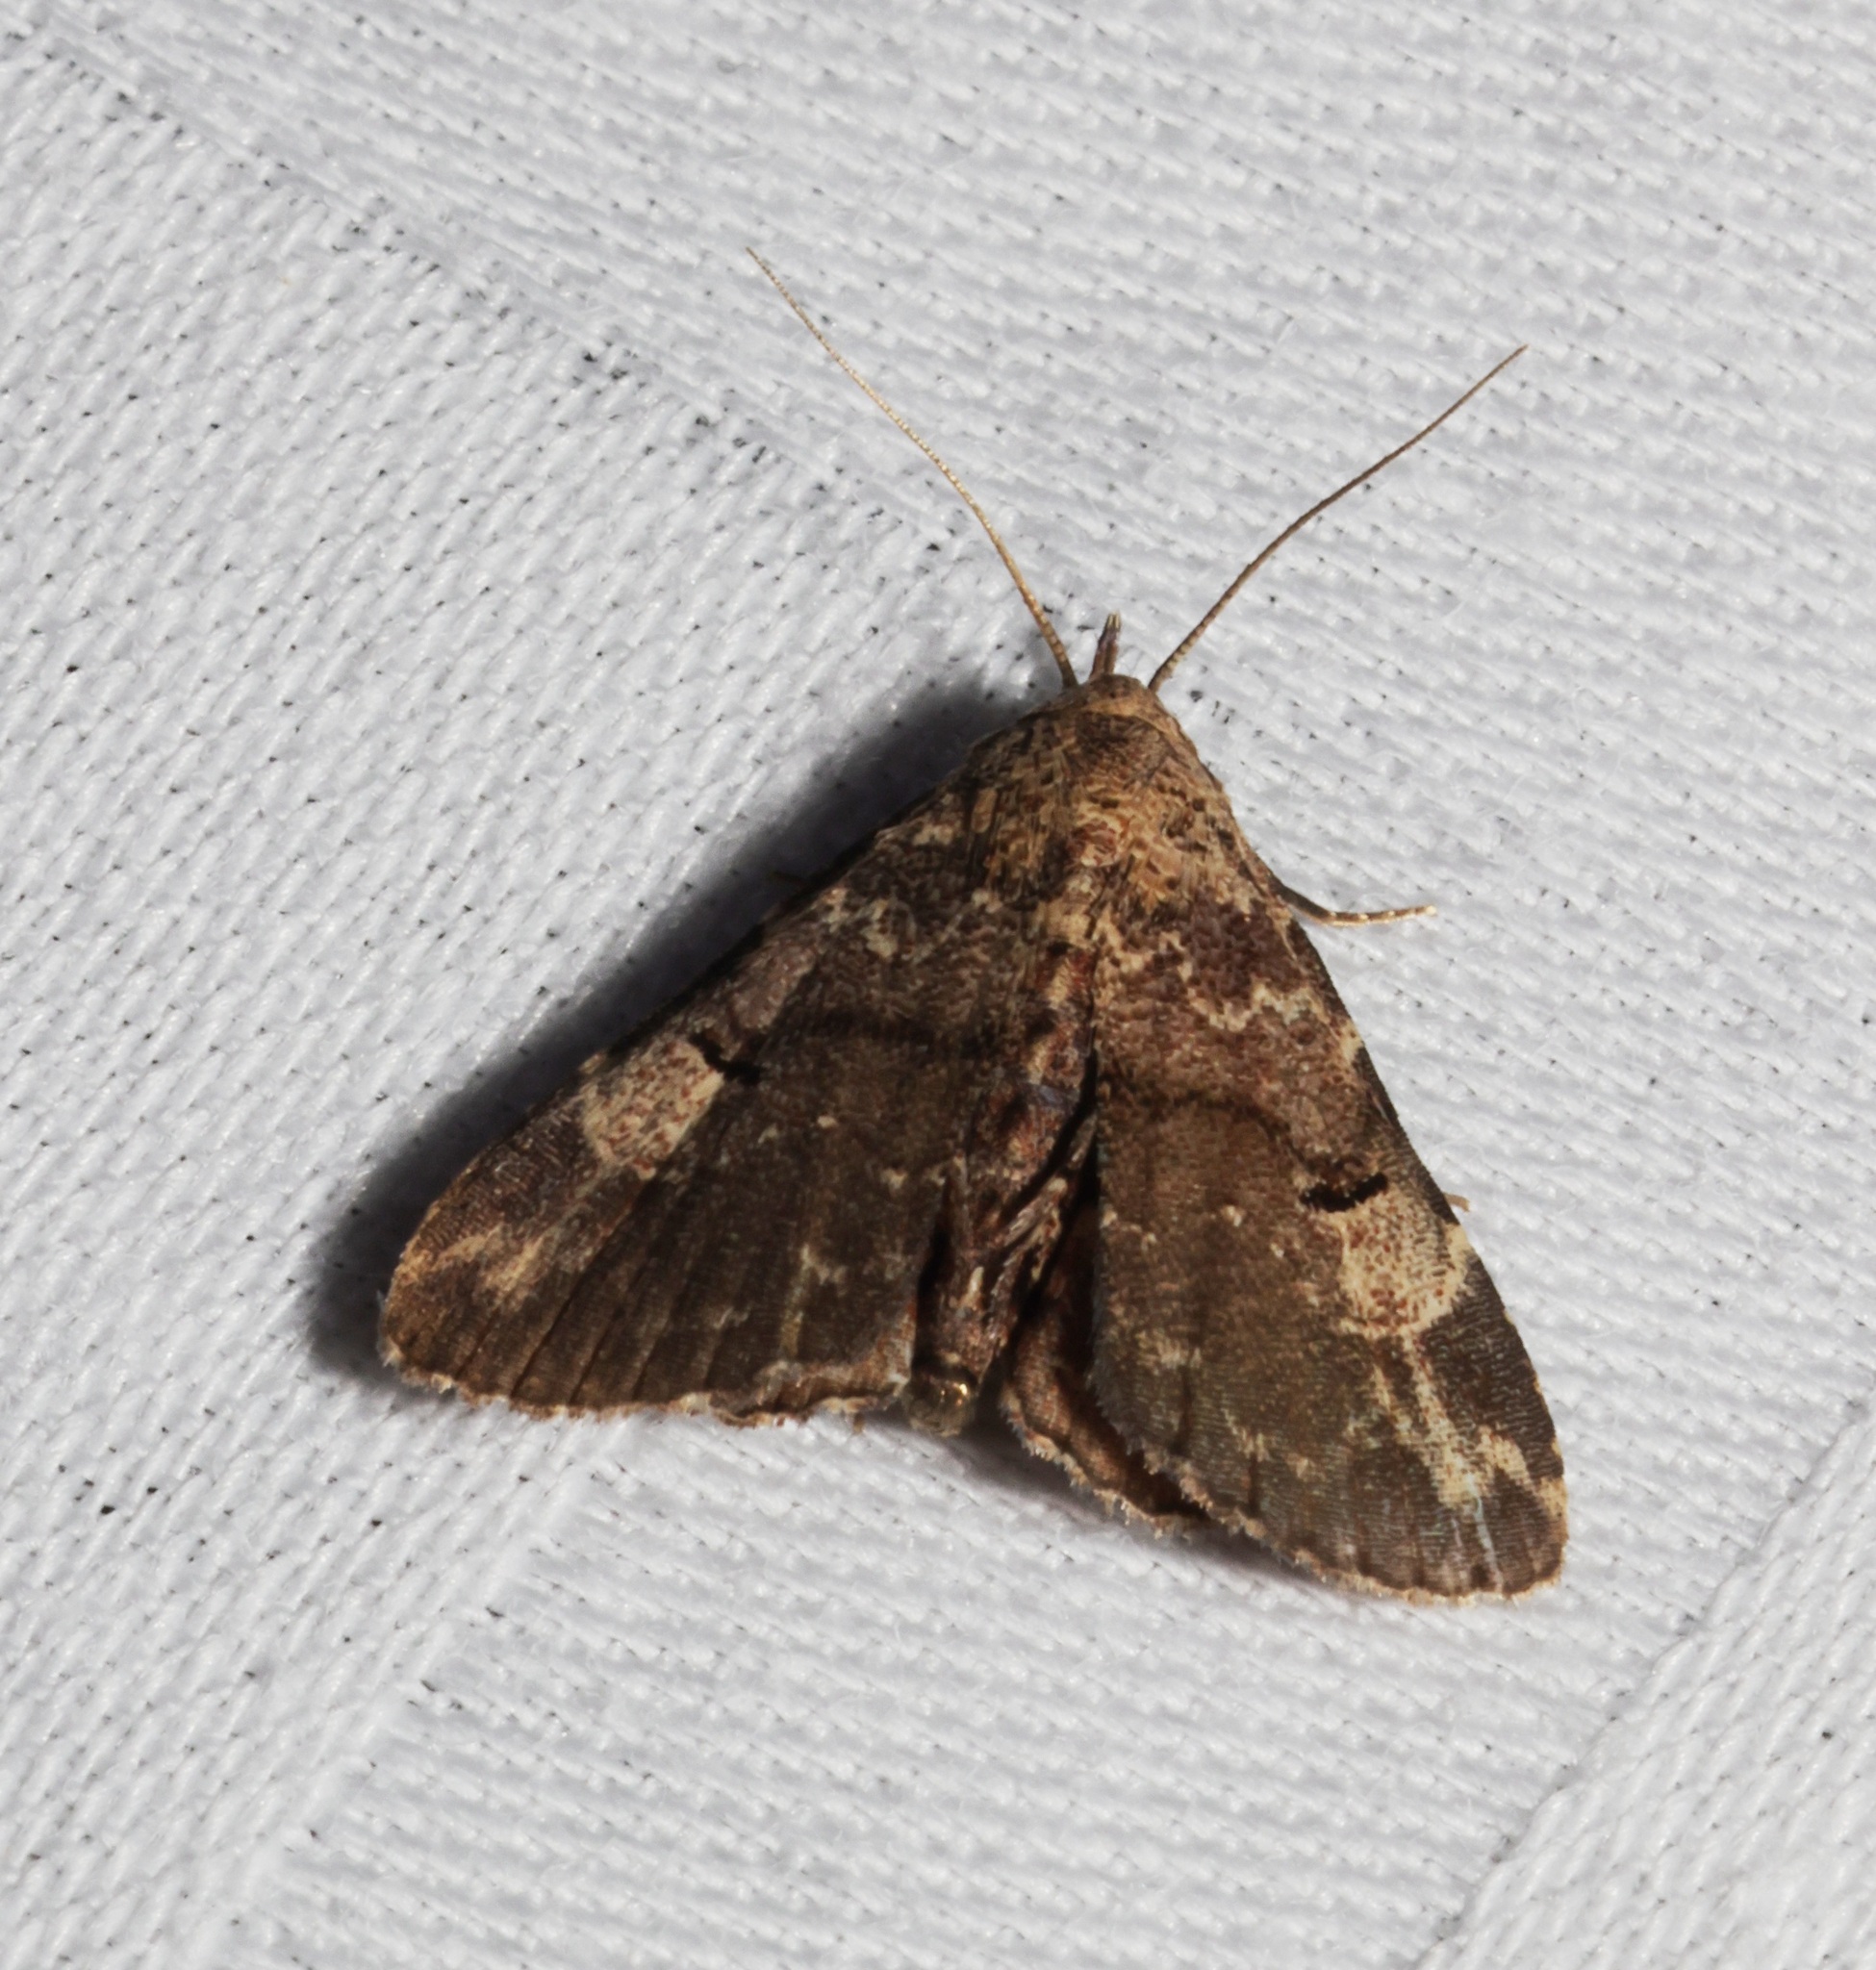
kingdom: Animalia
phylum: Arthropoda
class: Insecta
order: Lepidoptera
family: Erebidae
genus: Maguda
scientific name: Maguda suffusa
